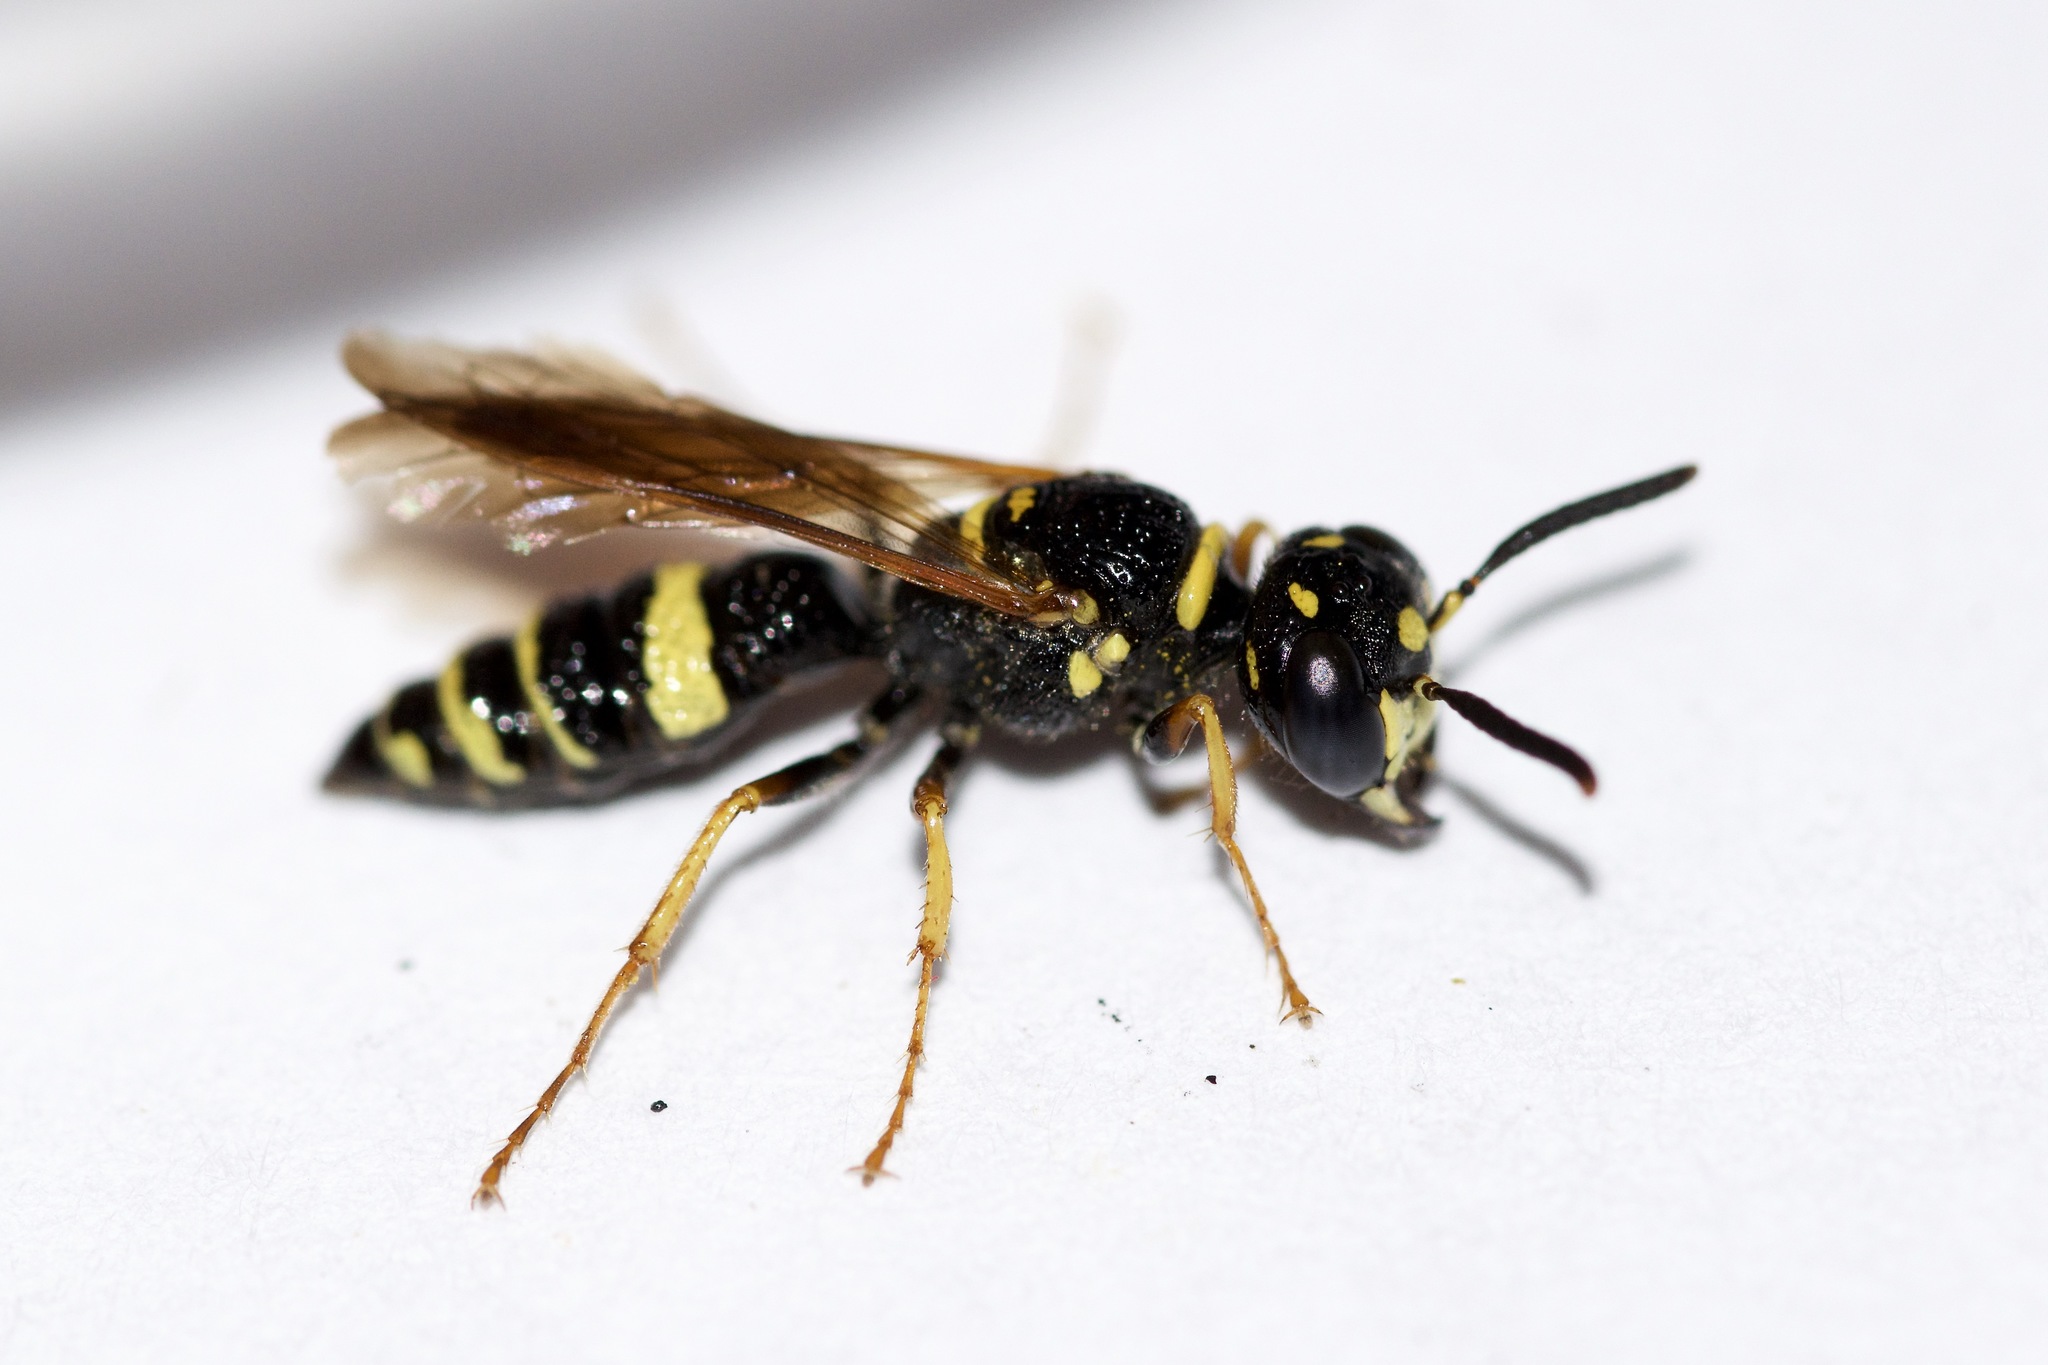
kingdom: Animalia
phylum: Arthropoda
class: Insecta
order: Hymenoptera
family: Crabronidae
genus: Philanthus
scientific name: Philanthus gibbosus
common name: Humped beewolf
